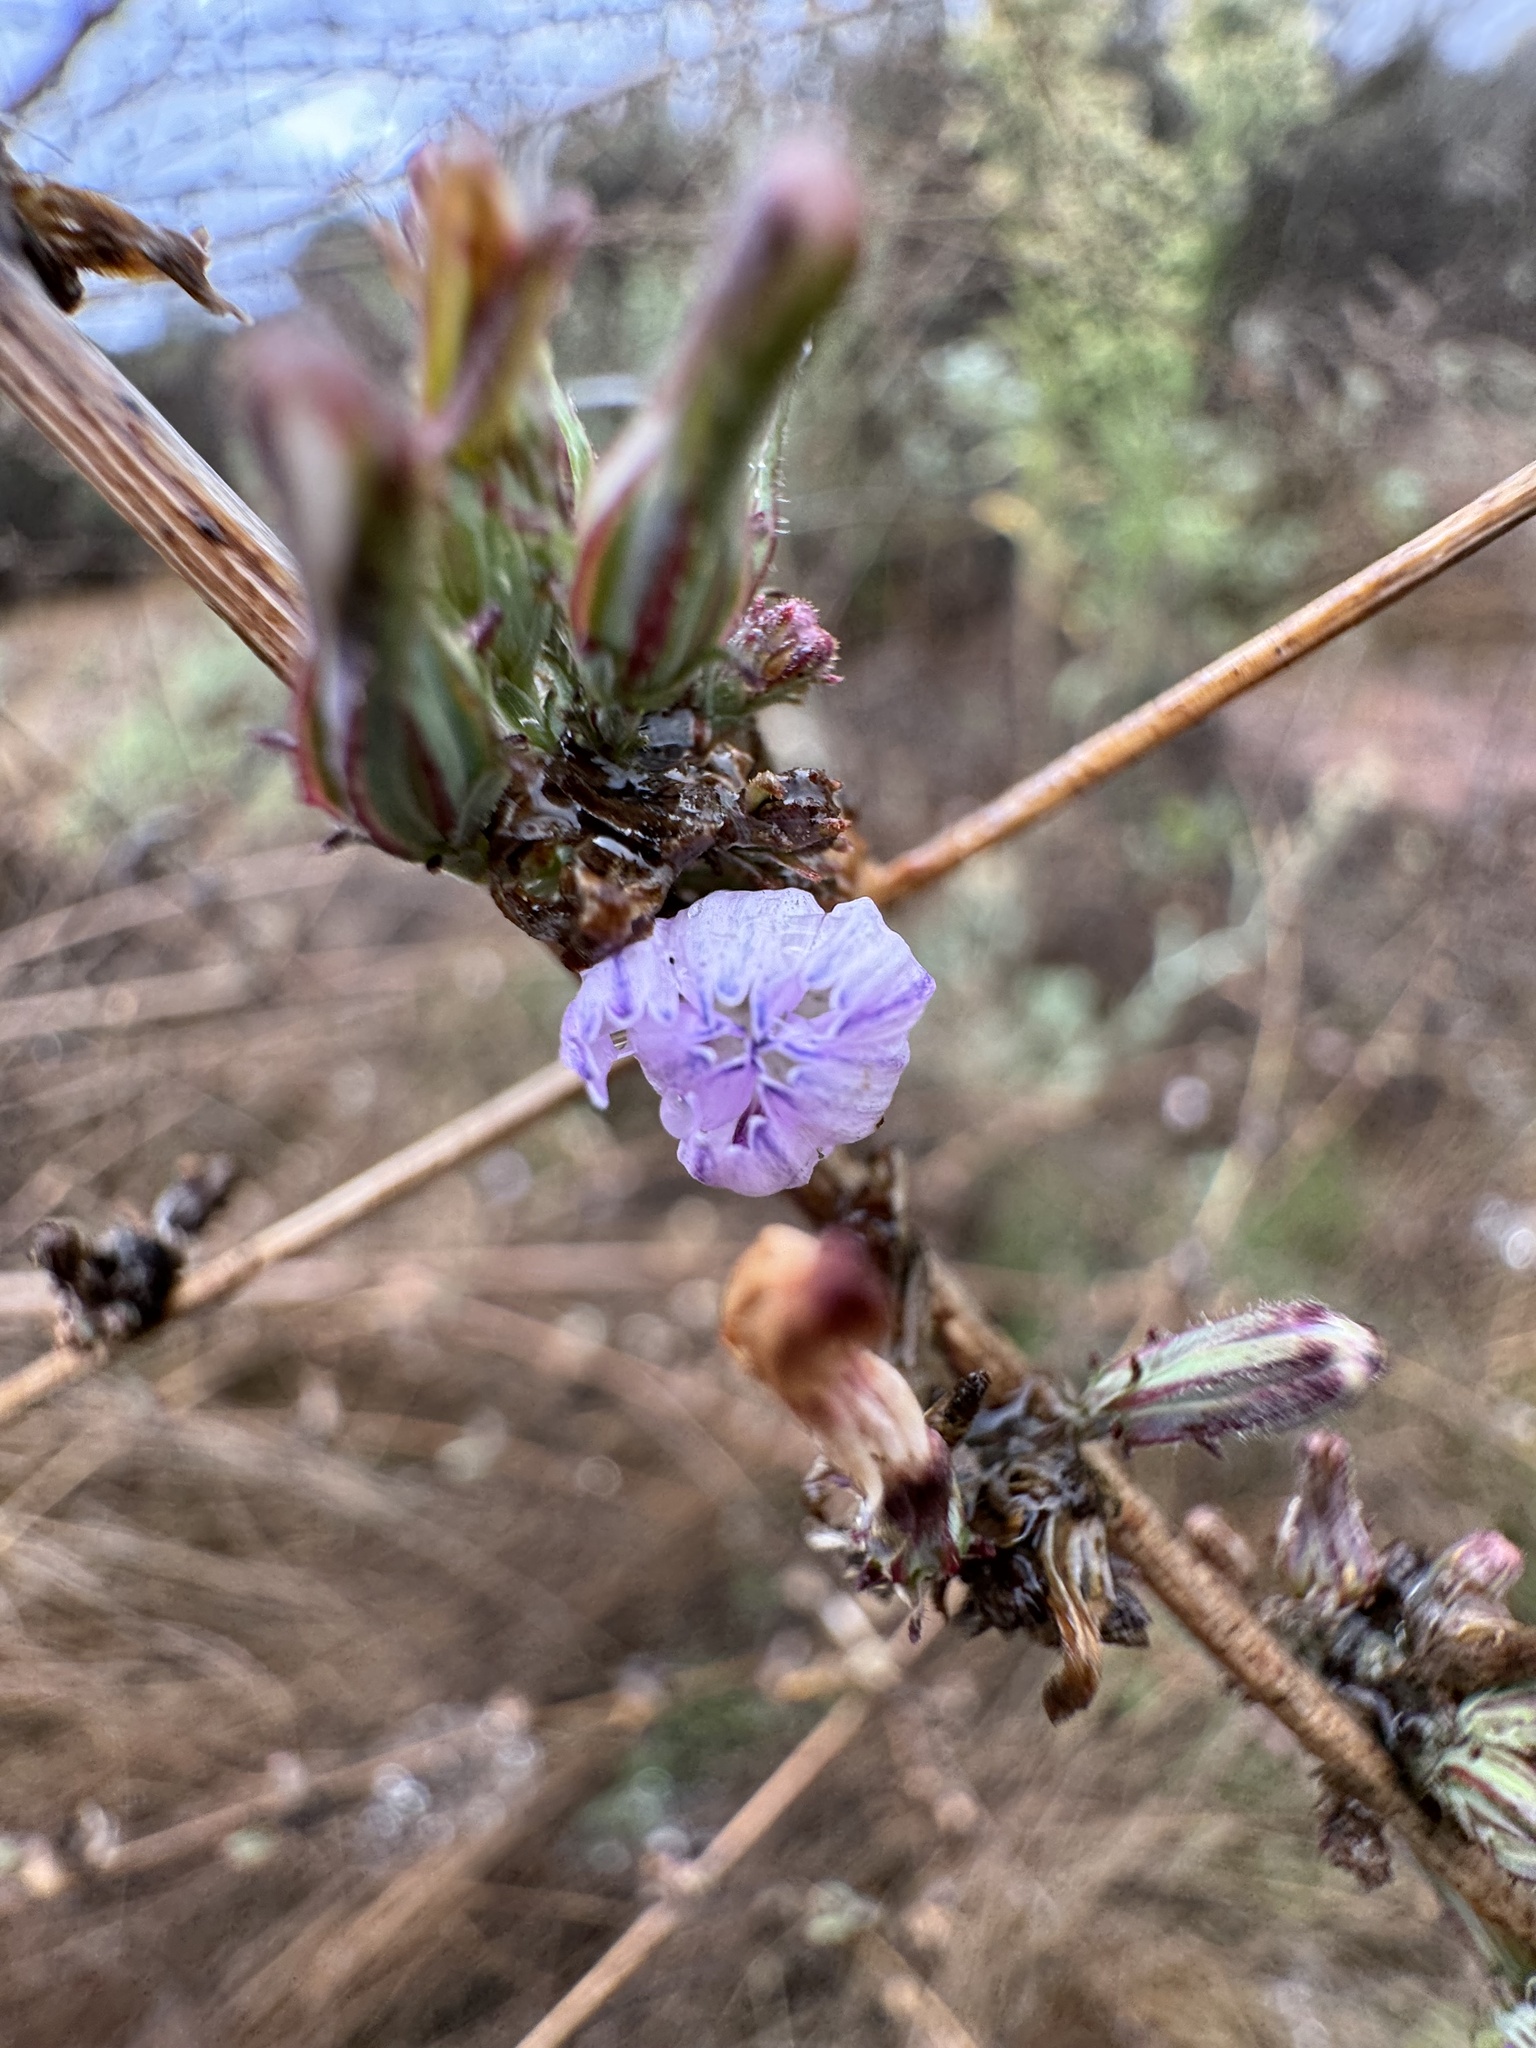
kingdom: Plantae
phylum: Tracheophyta
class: Magnoliopsida
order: Asterales
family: Asteraceae
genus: Stephanomeria
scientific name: Stephanomeria diegensis
